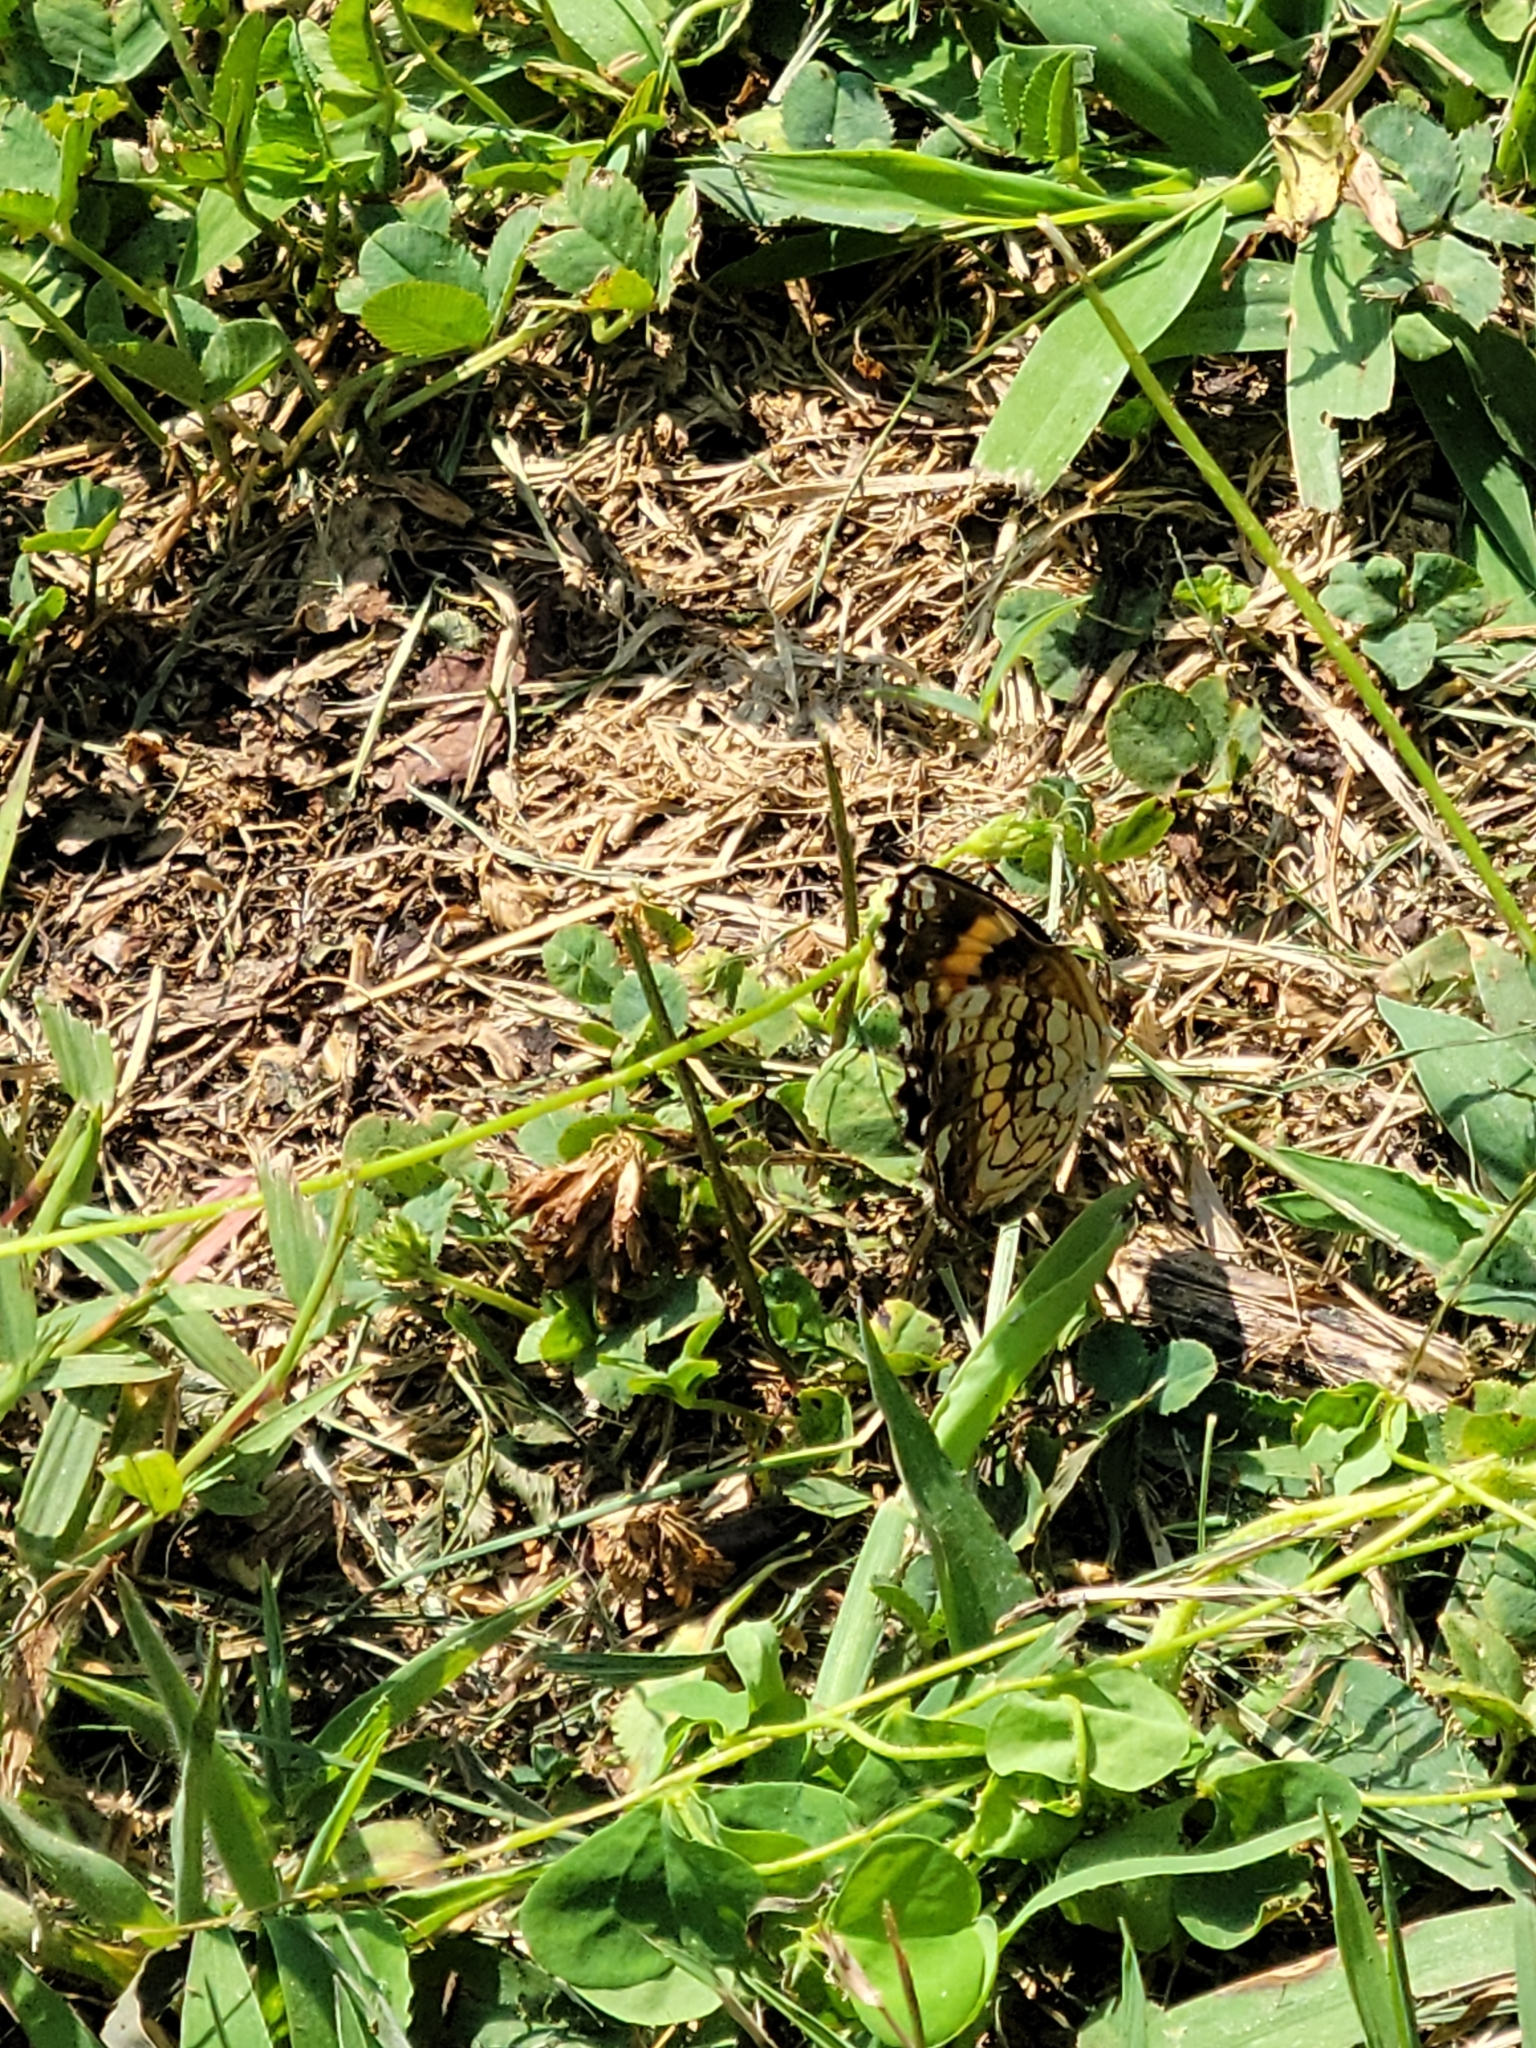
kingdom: Animalia
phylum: Arthropoda
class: Insecta
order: Lepidoptera
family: Nymphalidae
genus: Chlosyne
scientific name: Chlosyne nycteis
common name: Silvery checkerspot
